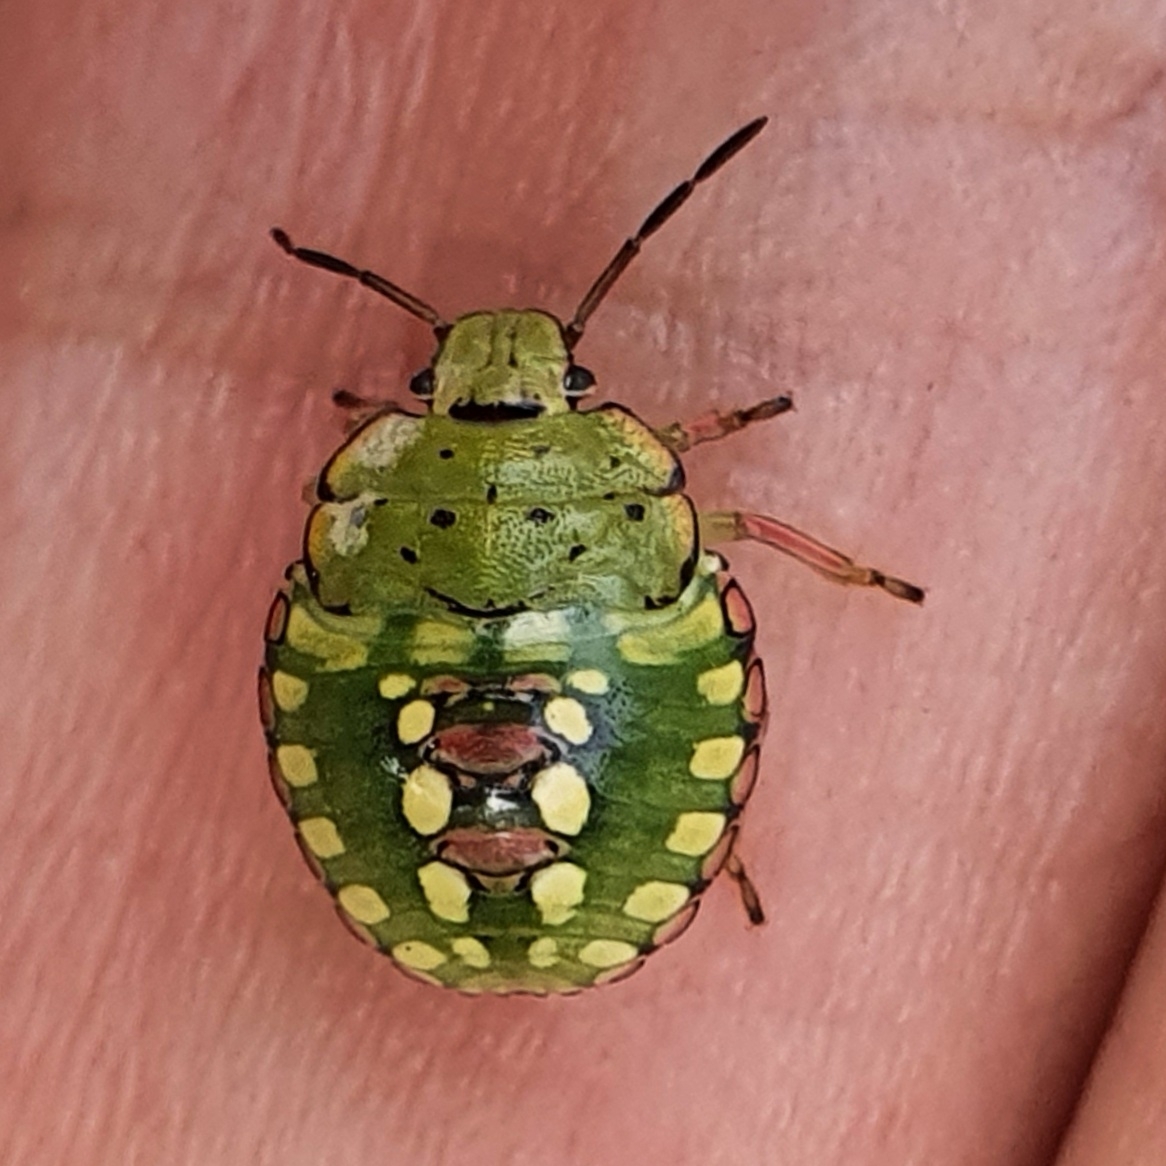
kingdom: Animalia
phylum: Arthropoda
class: Insecta
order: Hemiptera
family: Pentatomidae
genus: Nezara
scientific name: Nezara viridula
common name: Southern green stink bug
